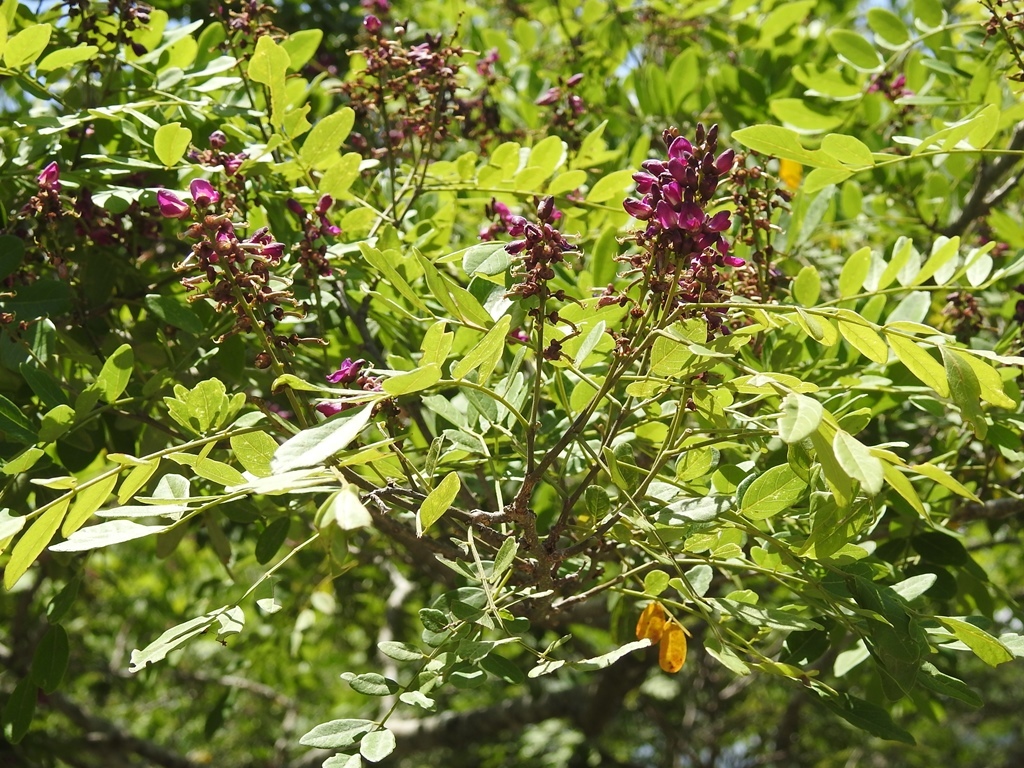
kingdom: Plantae
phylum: Tracheophyta
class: Magnoliopsida
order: Fabales
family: Fabaceae
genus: Lonchocarpus
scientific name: Lonchocarpus foveolatus
